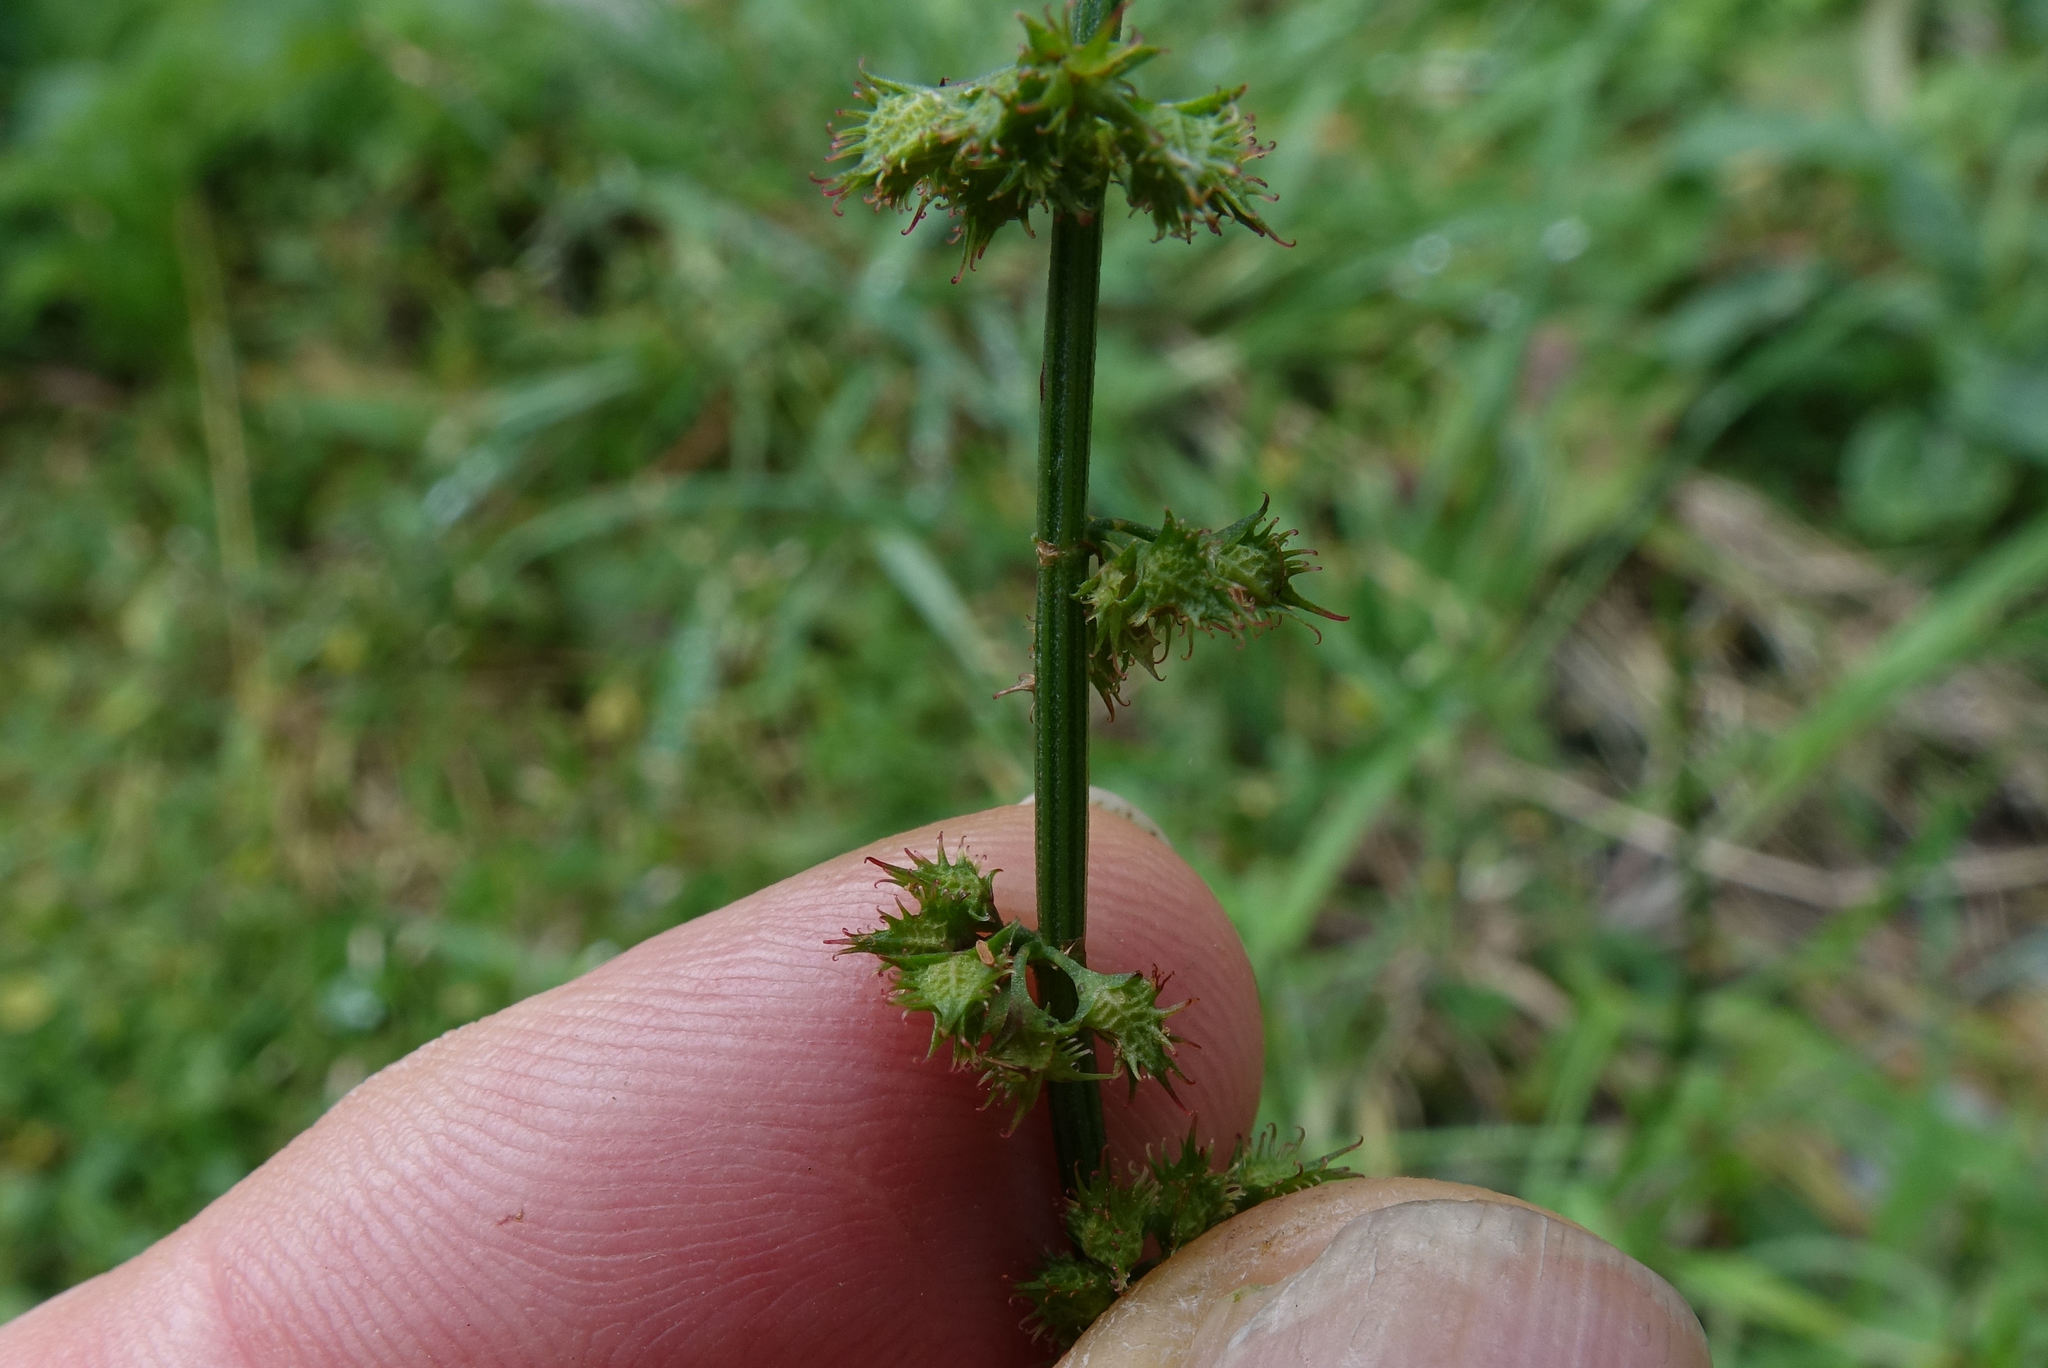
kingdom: Plantae
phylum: Tracheophyta
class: Magnoliopsida
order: Caryophyllales
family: Polygonaceae
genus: Rumex
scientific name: Rumex brownii
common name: Hooked dock
